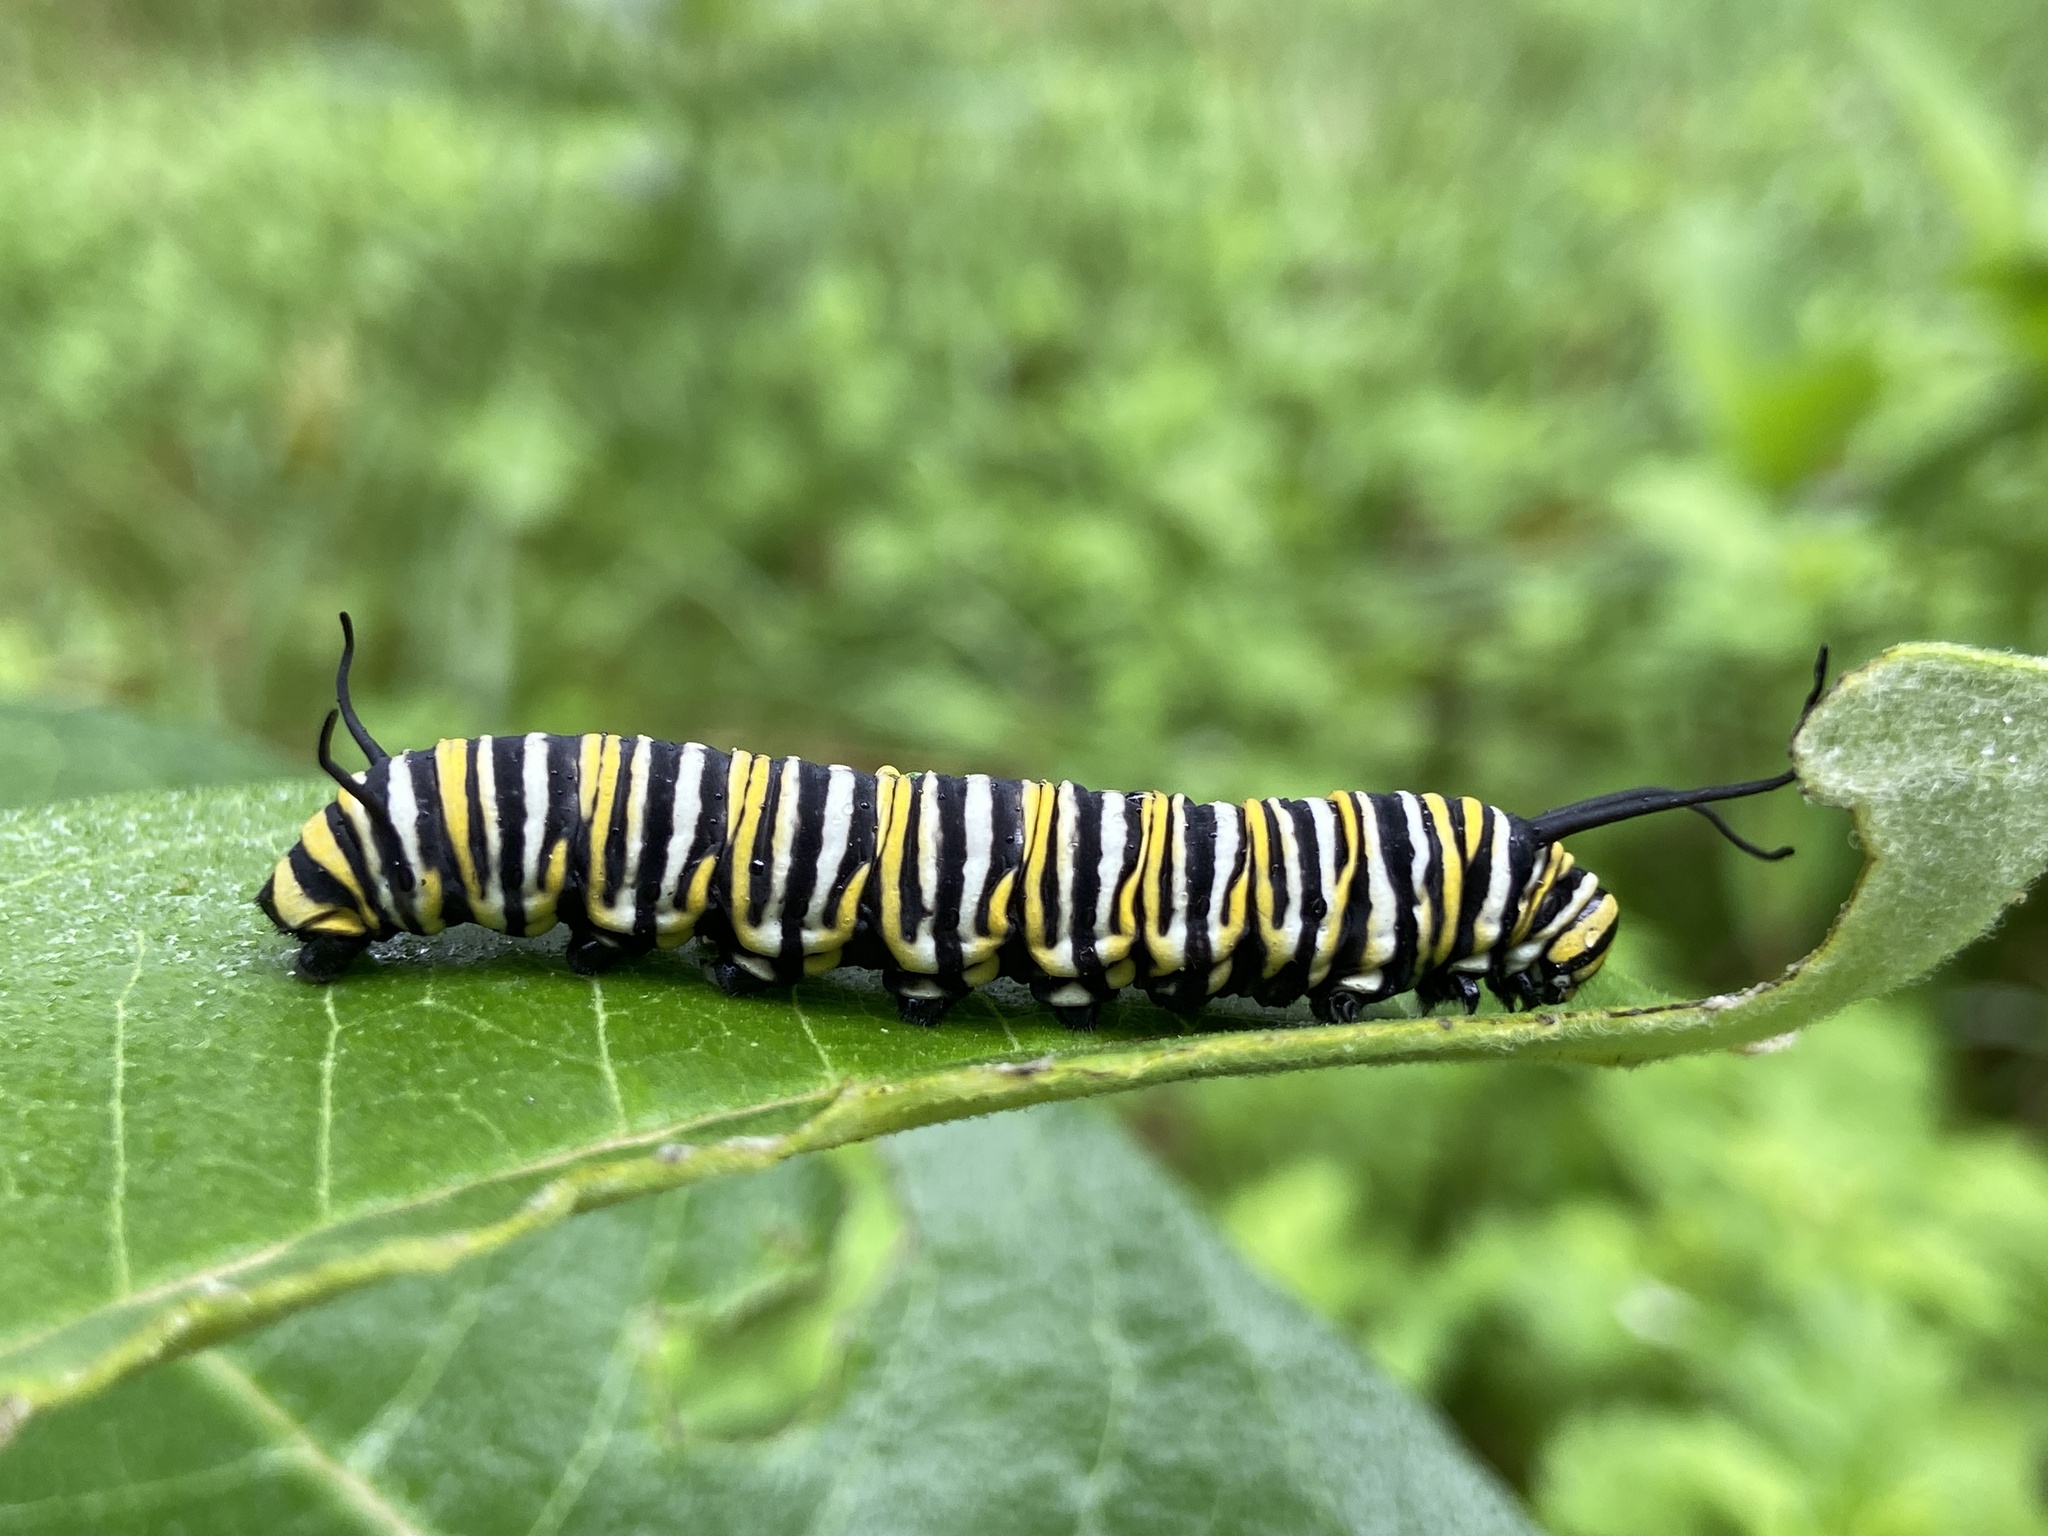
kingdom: Animalia
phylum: Arthropoda
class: Insecta
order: Lepidoptera
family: Nymphalidae
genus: Danaus
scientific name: Danaus plexippus
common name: Monarch
